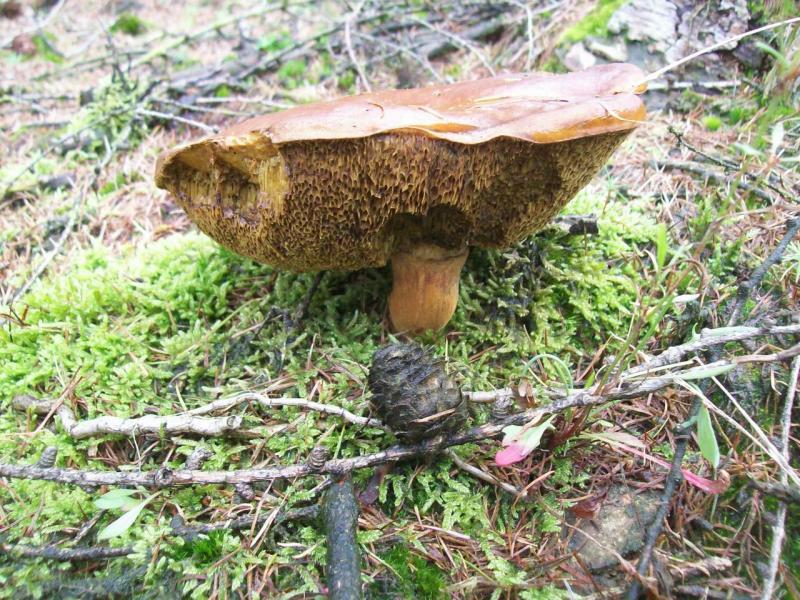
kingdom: Fungi
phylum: Basidiomycota
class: Agaricomycetes
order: Boletales
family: Boletaceae
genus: Imleria
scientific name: Imleria badia
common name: Bay bolete
